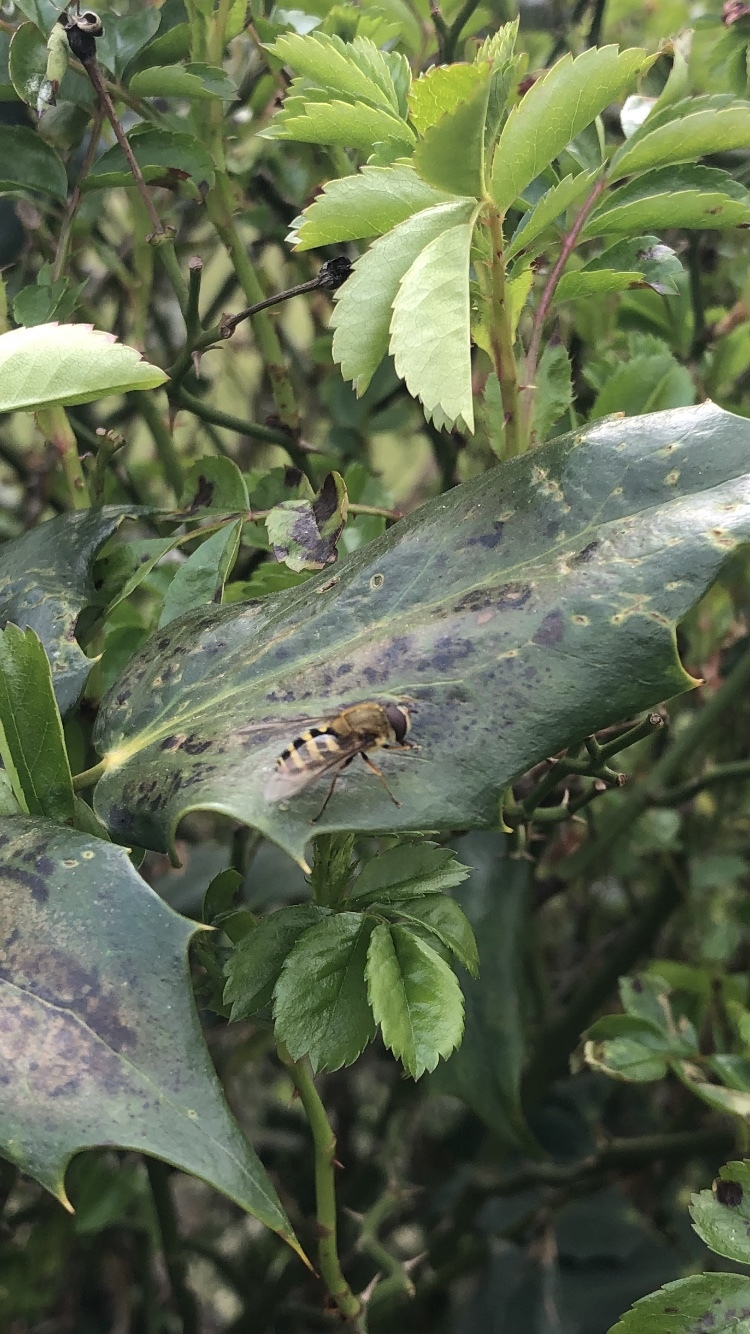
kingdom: Animalia
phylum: Arthropoda
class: Insecta
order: Diptera
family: Syrphidae
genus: Syrphus
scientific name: Syrphus
